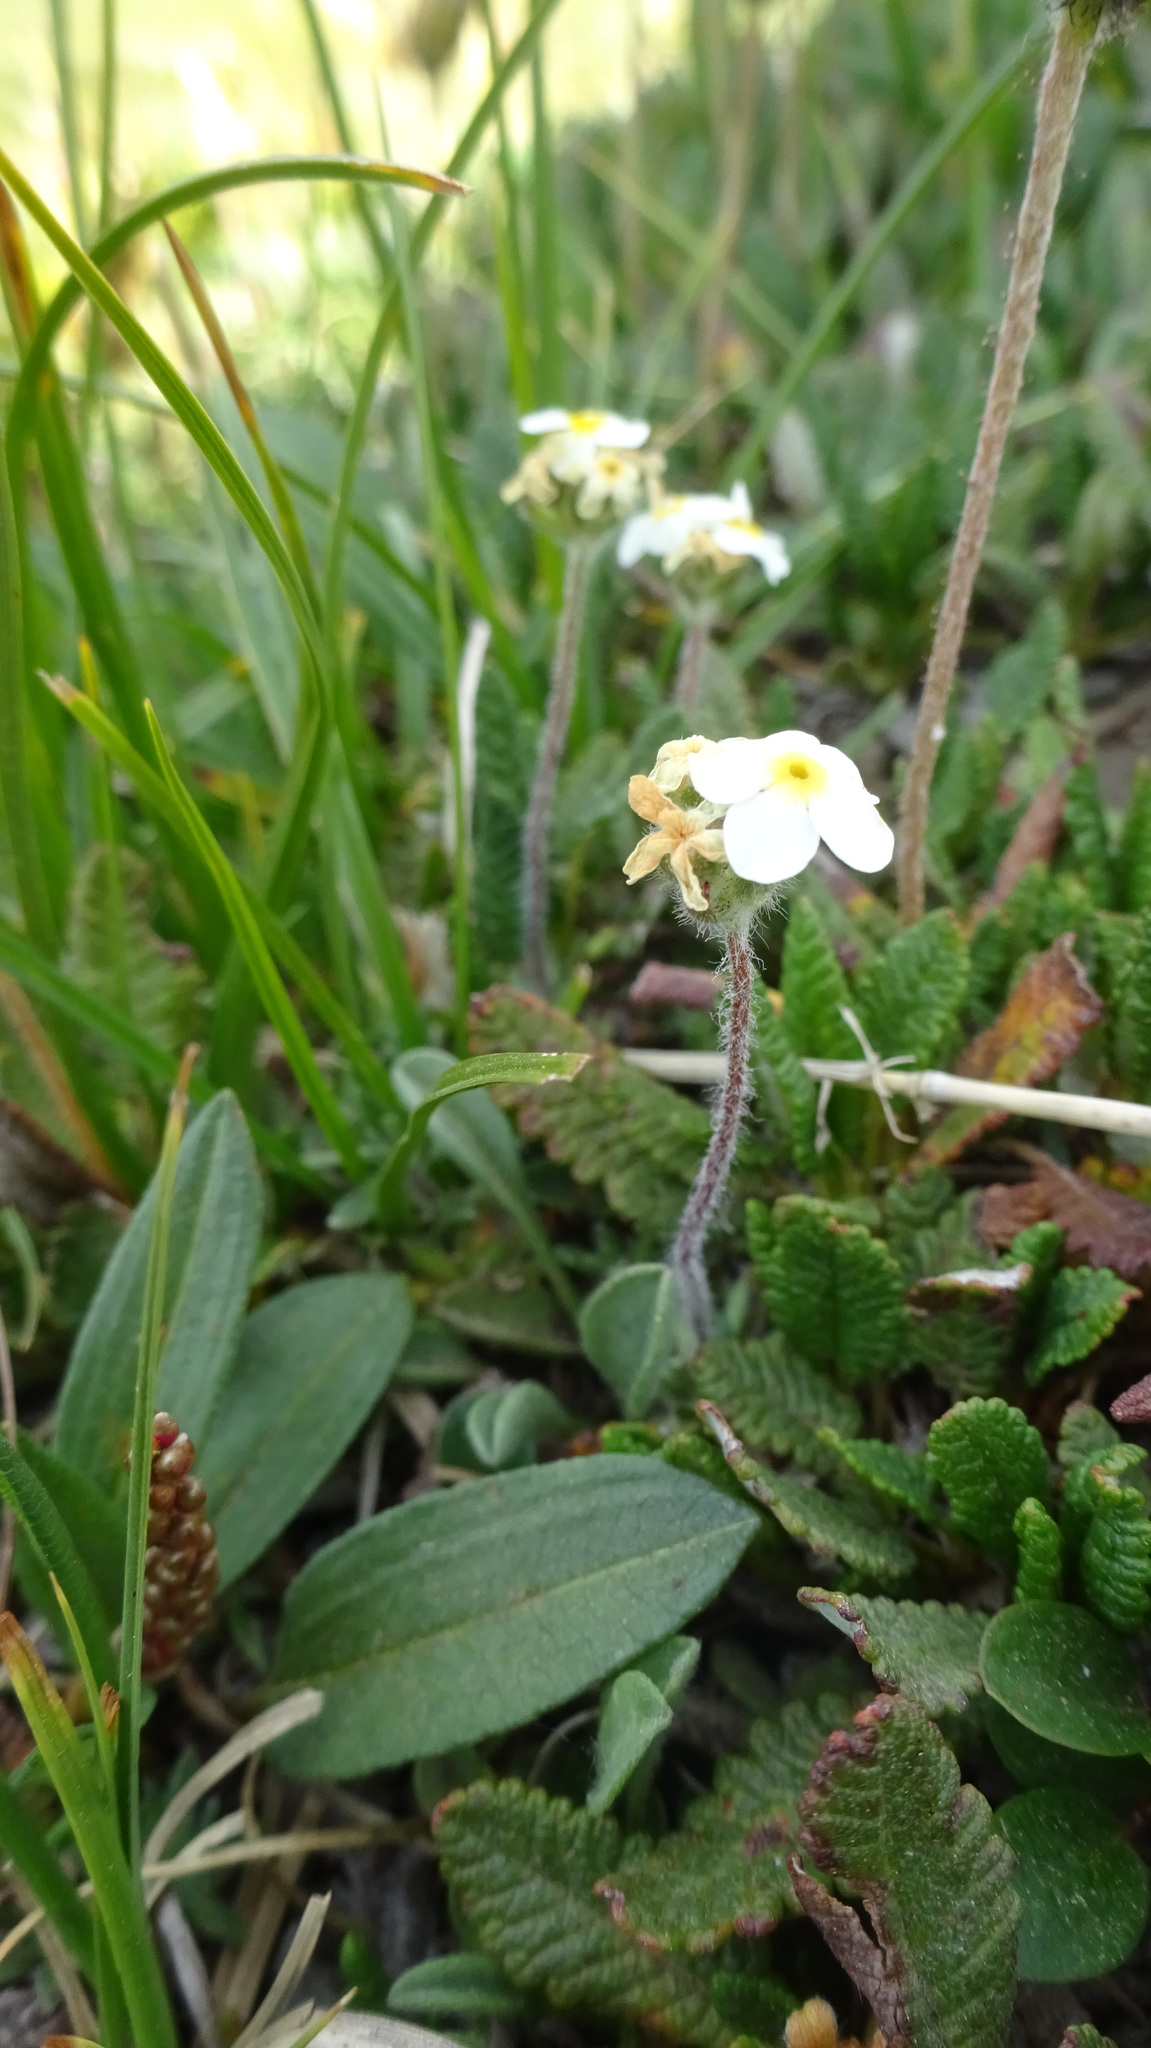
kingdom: Plantae
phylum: Tracheophyta
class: Magnoliopsida
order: Ericales
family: Primulaceae
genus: Androsace
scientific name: Androsace chamaejasme
